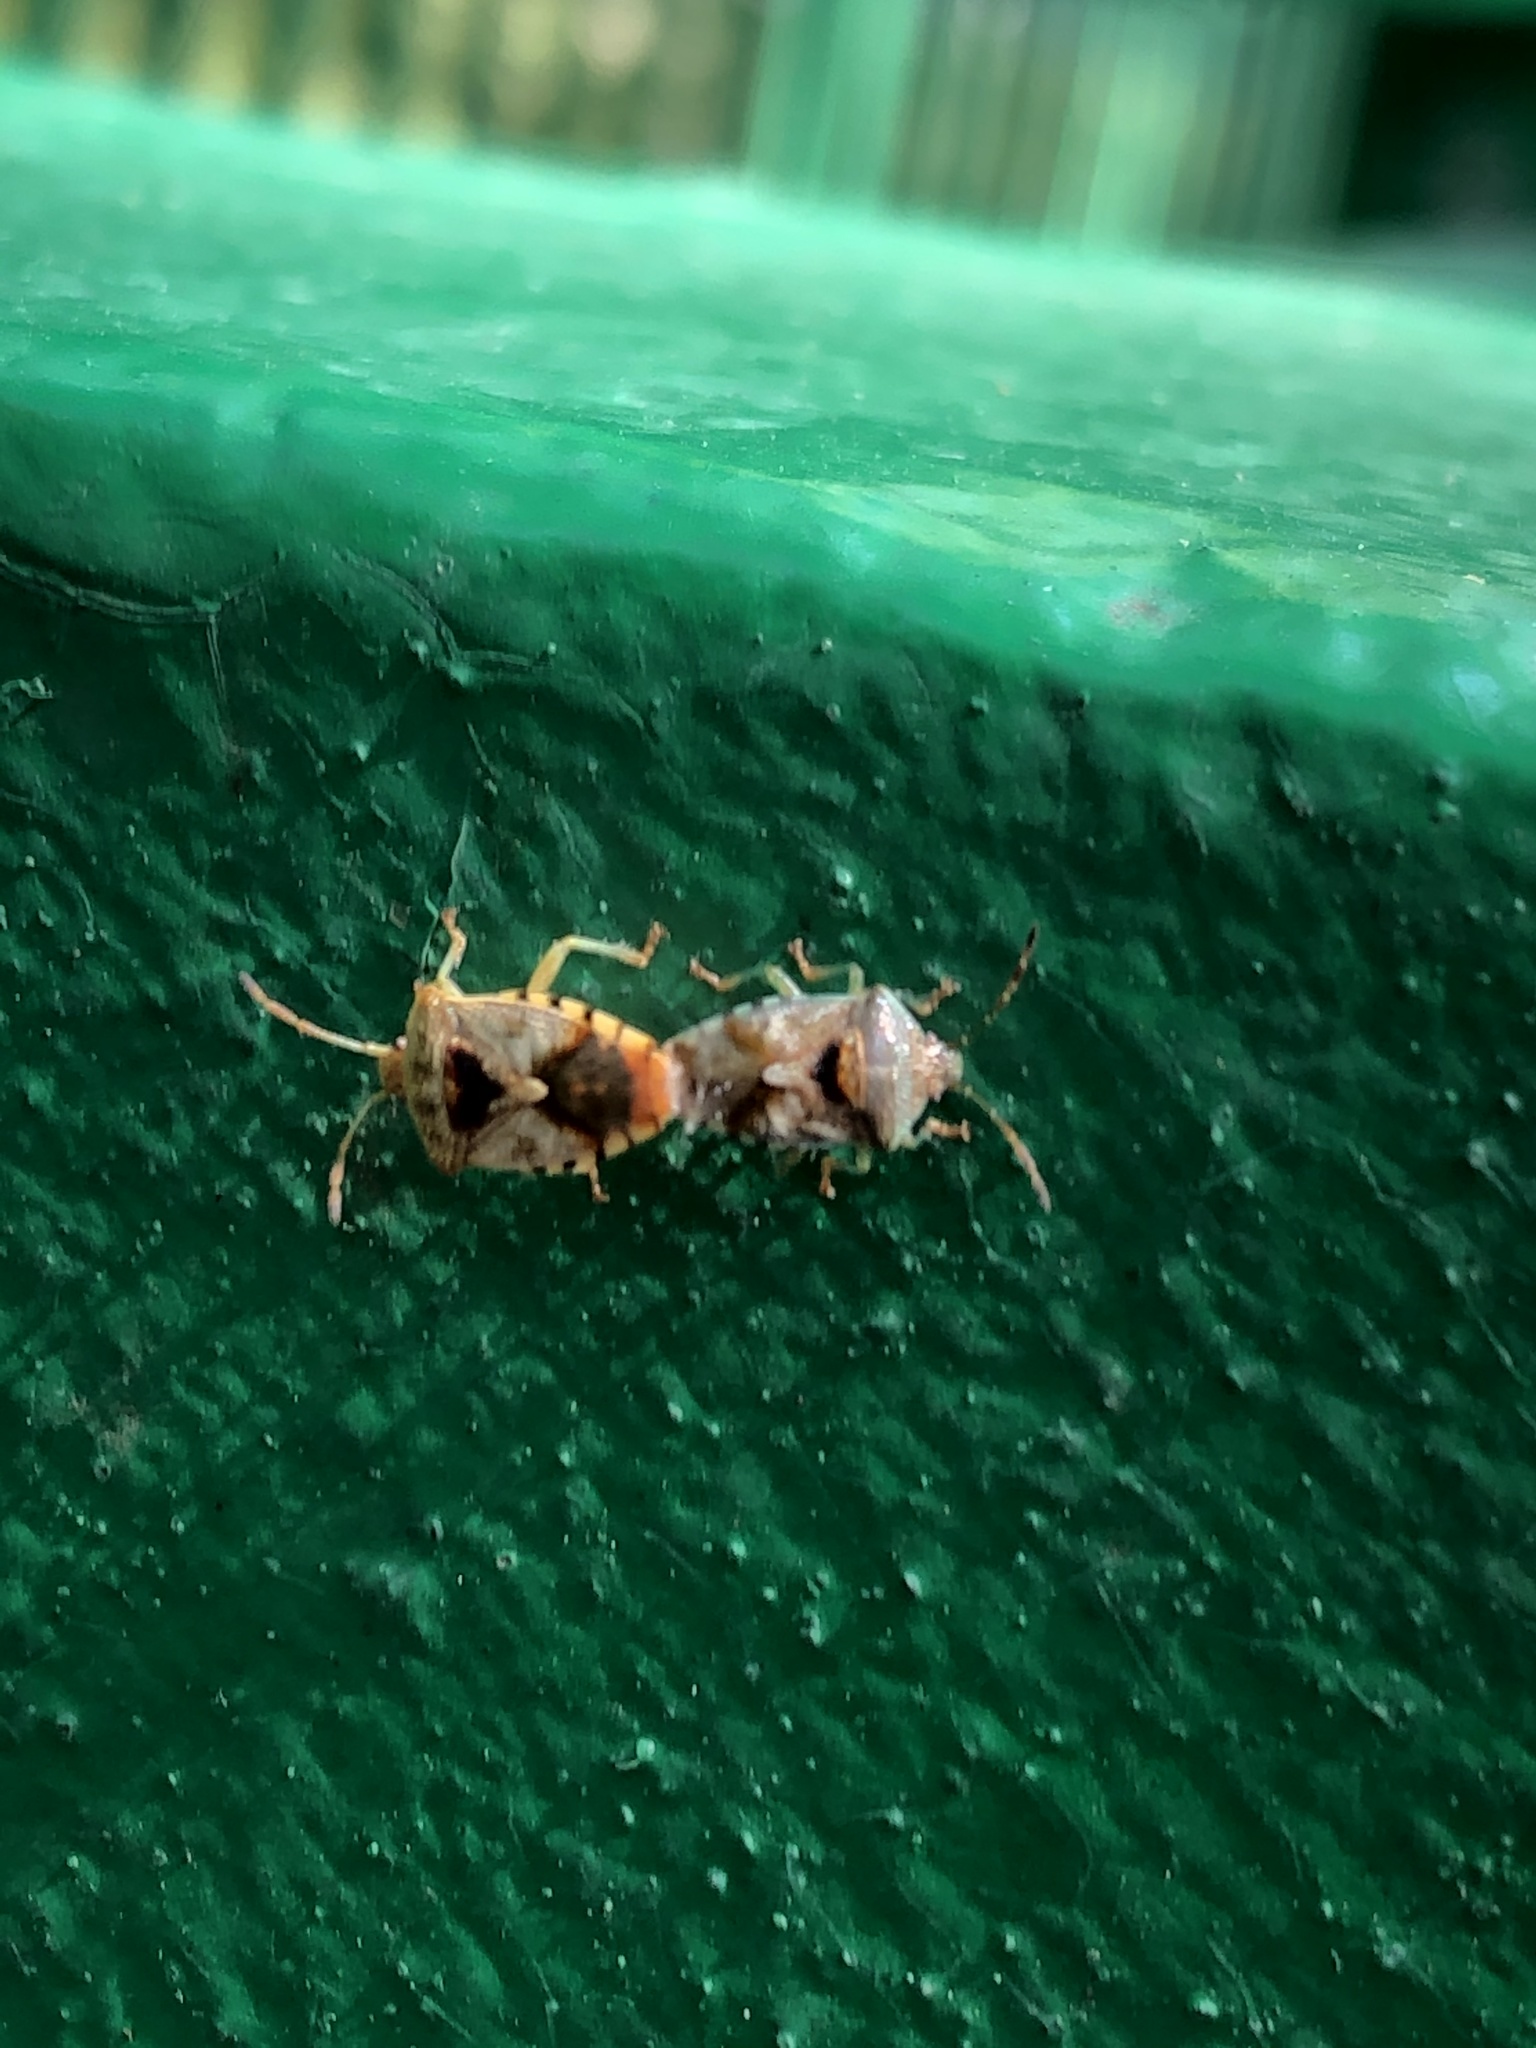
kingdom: Animalia
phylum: Arthropoda
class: Insecta
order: Hemiptera
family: Acanthosomatidae
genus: Elasmucha
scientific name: Elasmucha grisea
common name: Parent bug
